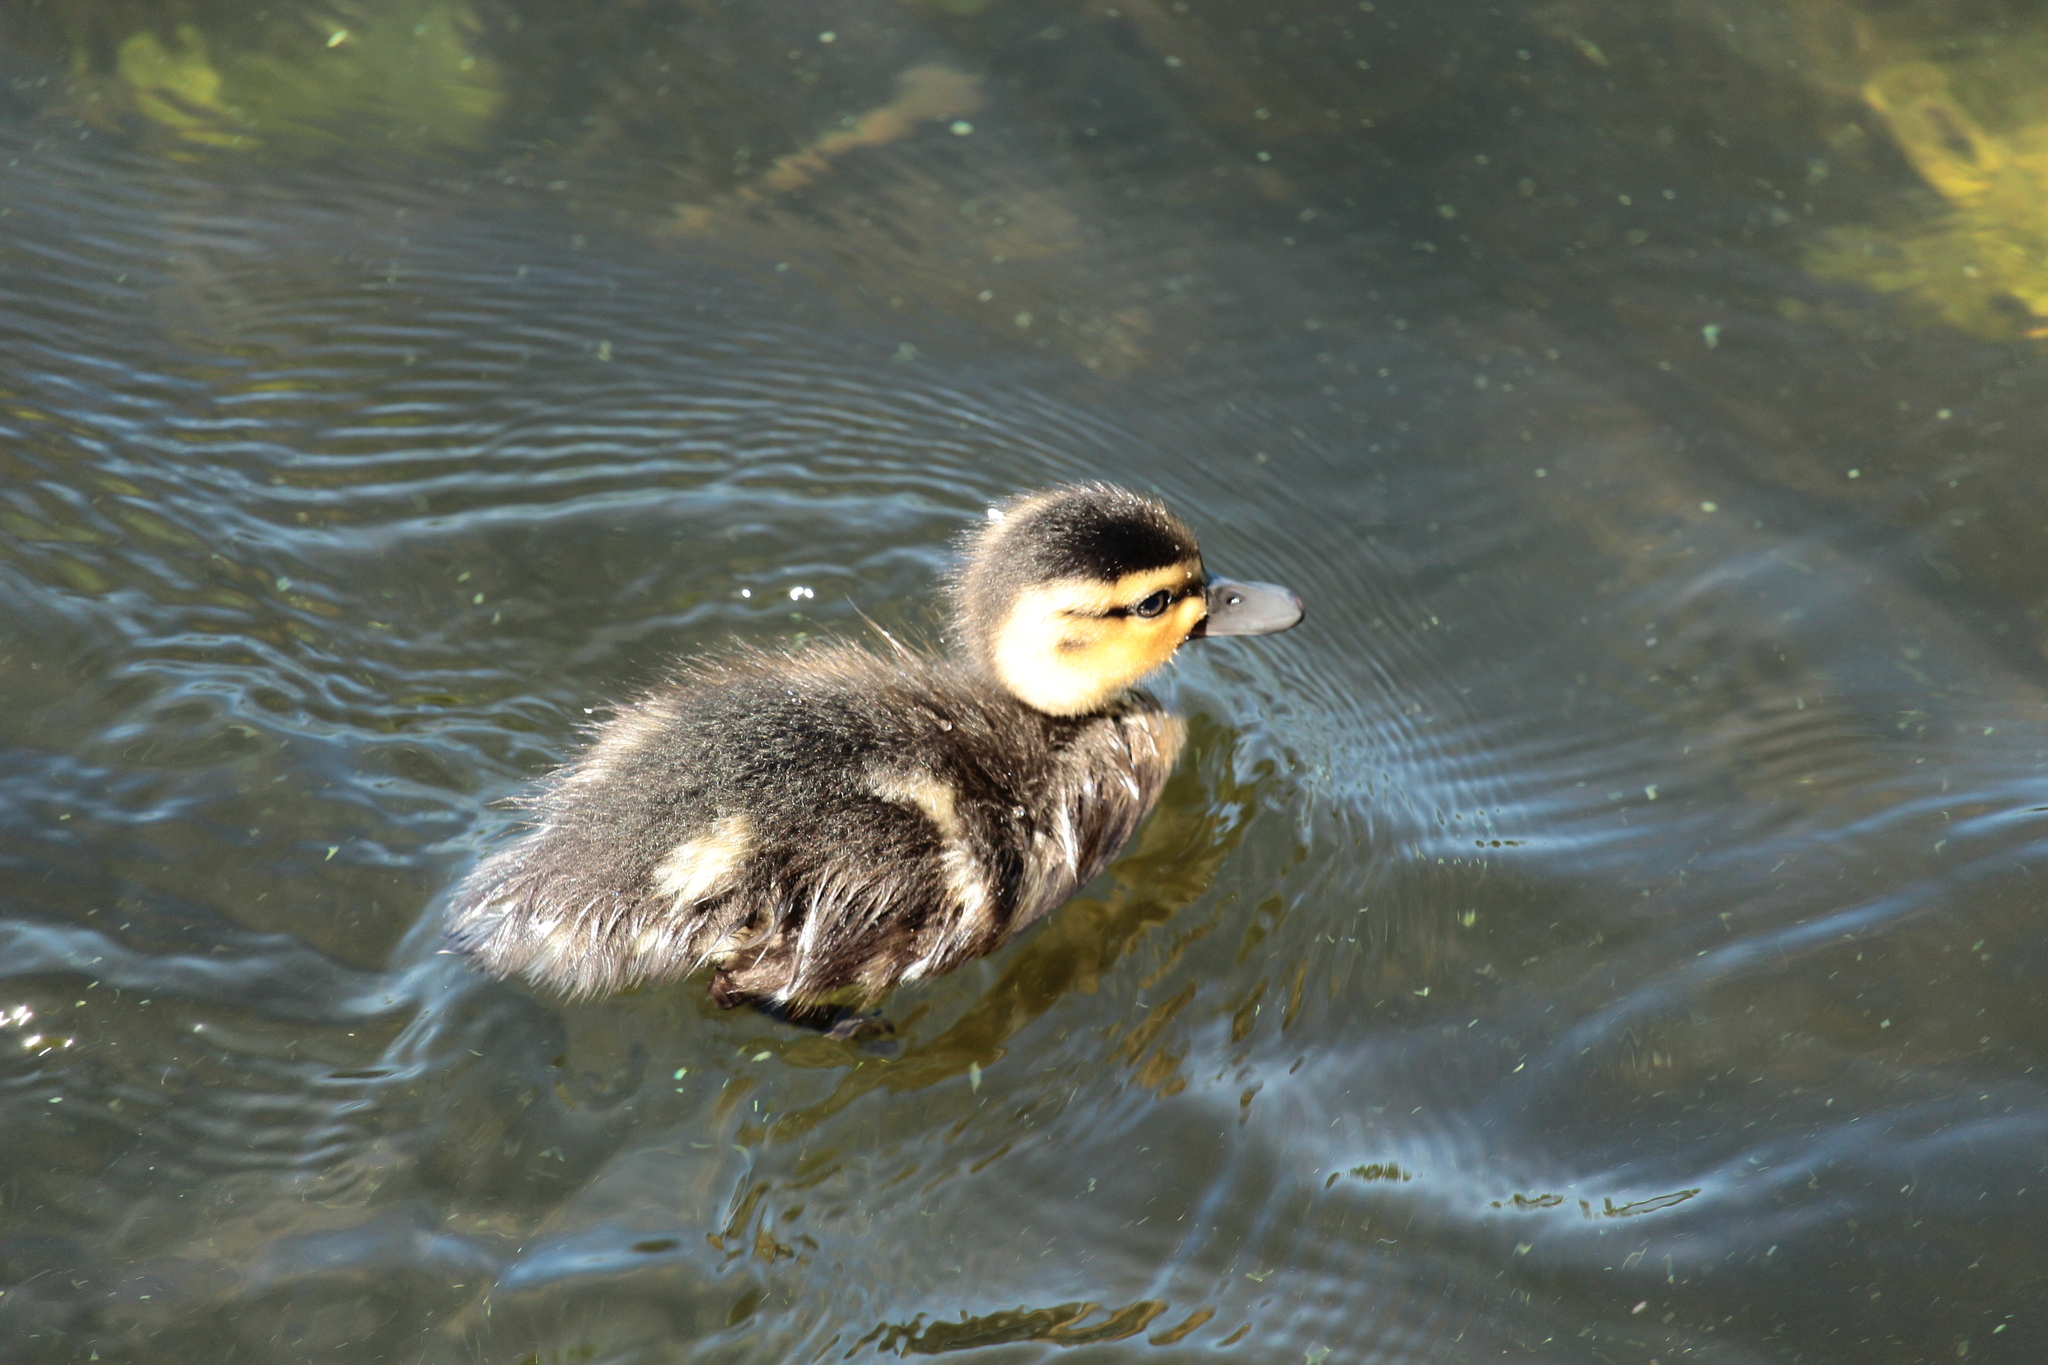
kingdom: Animalia
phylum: Chordata
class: Aves
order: Anseriformes
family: Anatidae
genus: Anas
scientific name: Anas platyrhynchos
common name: Mallard
